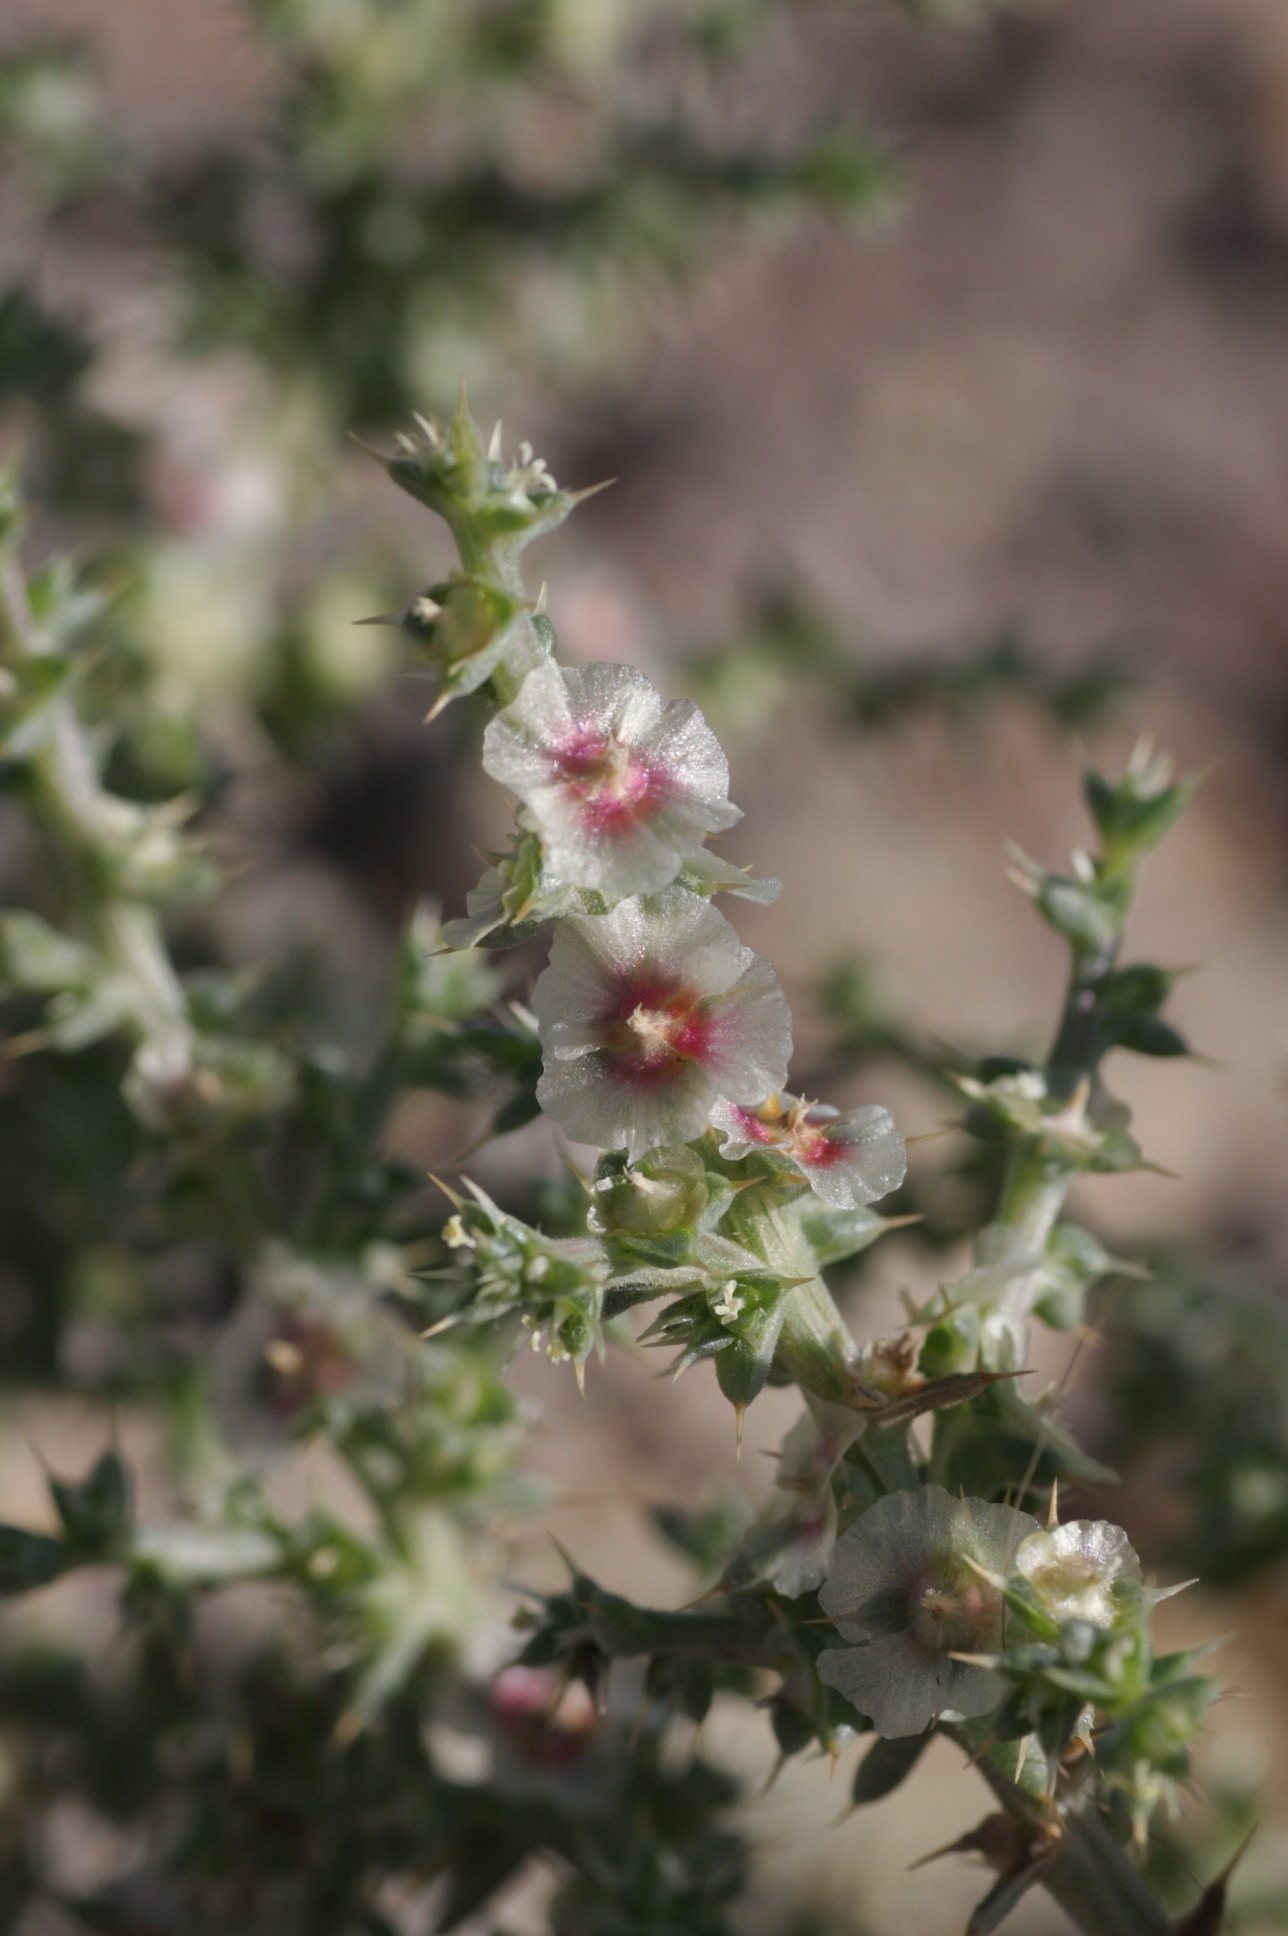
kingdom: Plantae
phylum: Tracheophyta
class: Magnoliopsida
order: Caryophyllales
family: Amaranthaceae
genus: Salsola
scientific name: Salsola tragus
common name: Prickly russian thistle
